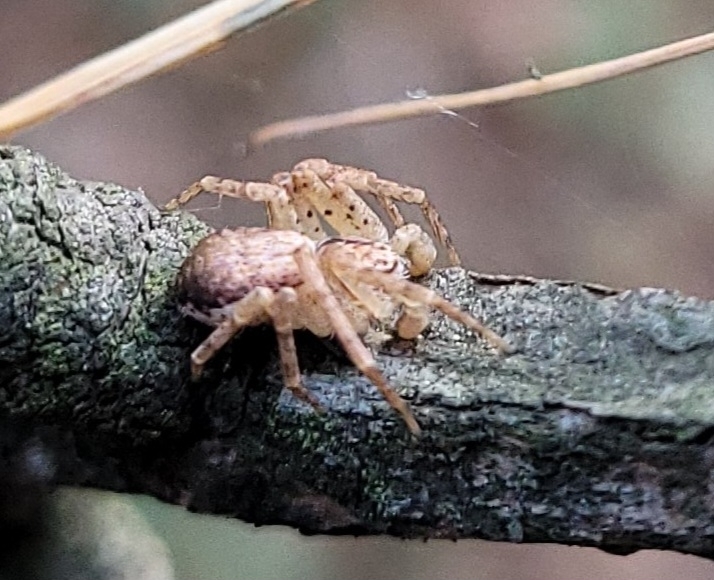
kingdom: Animalia
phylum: Arthropoda
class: Arachnida
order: Araneae
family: Philodromidae
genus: Philodromus
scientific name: Philodromus dispar
